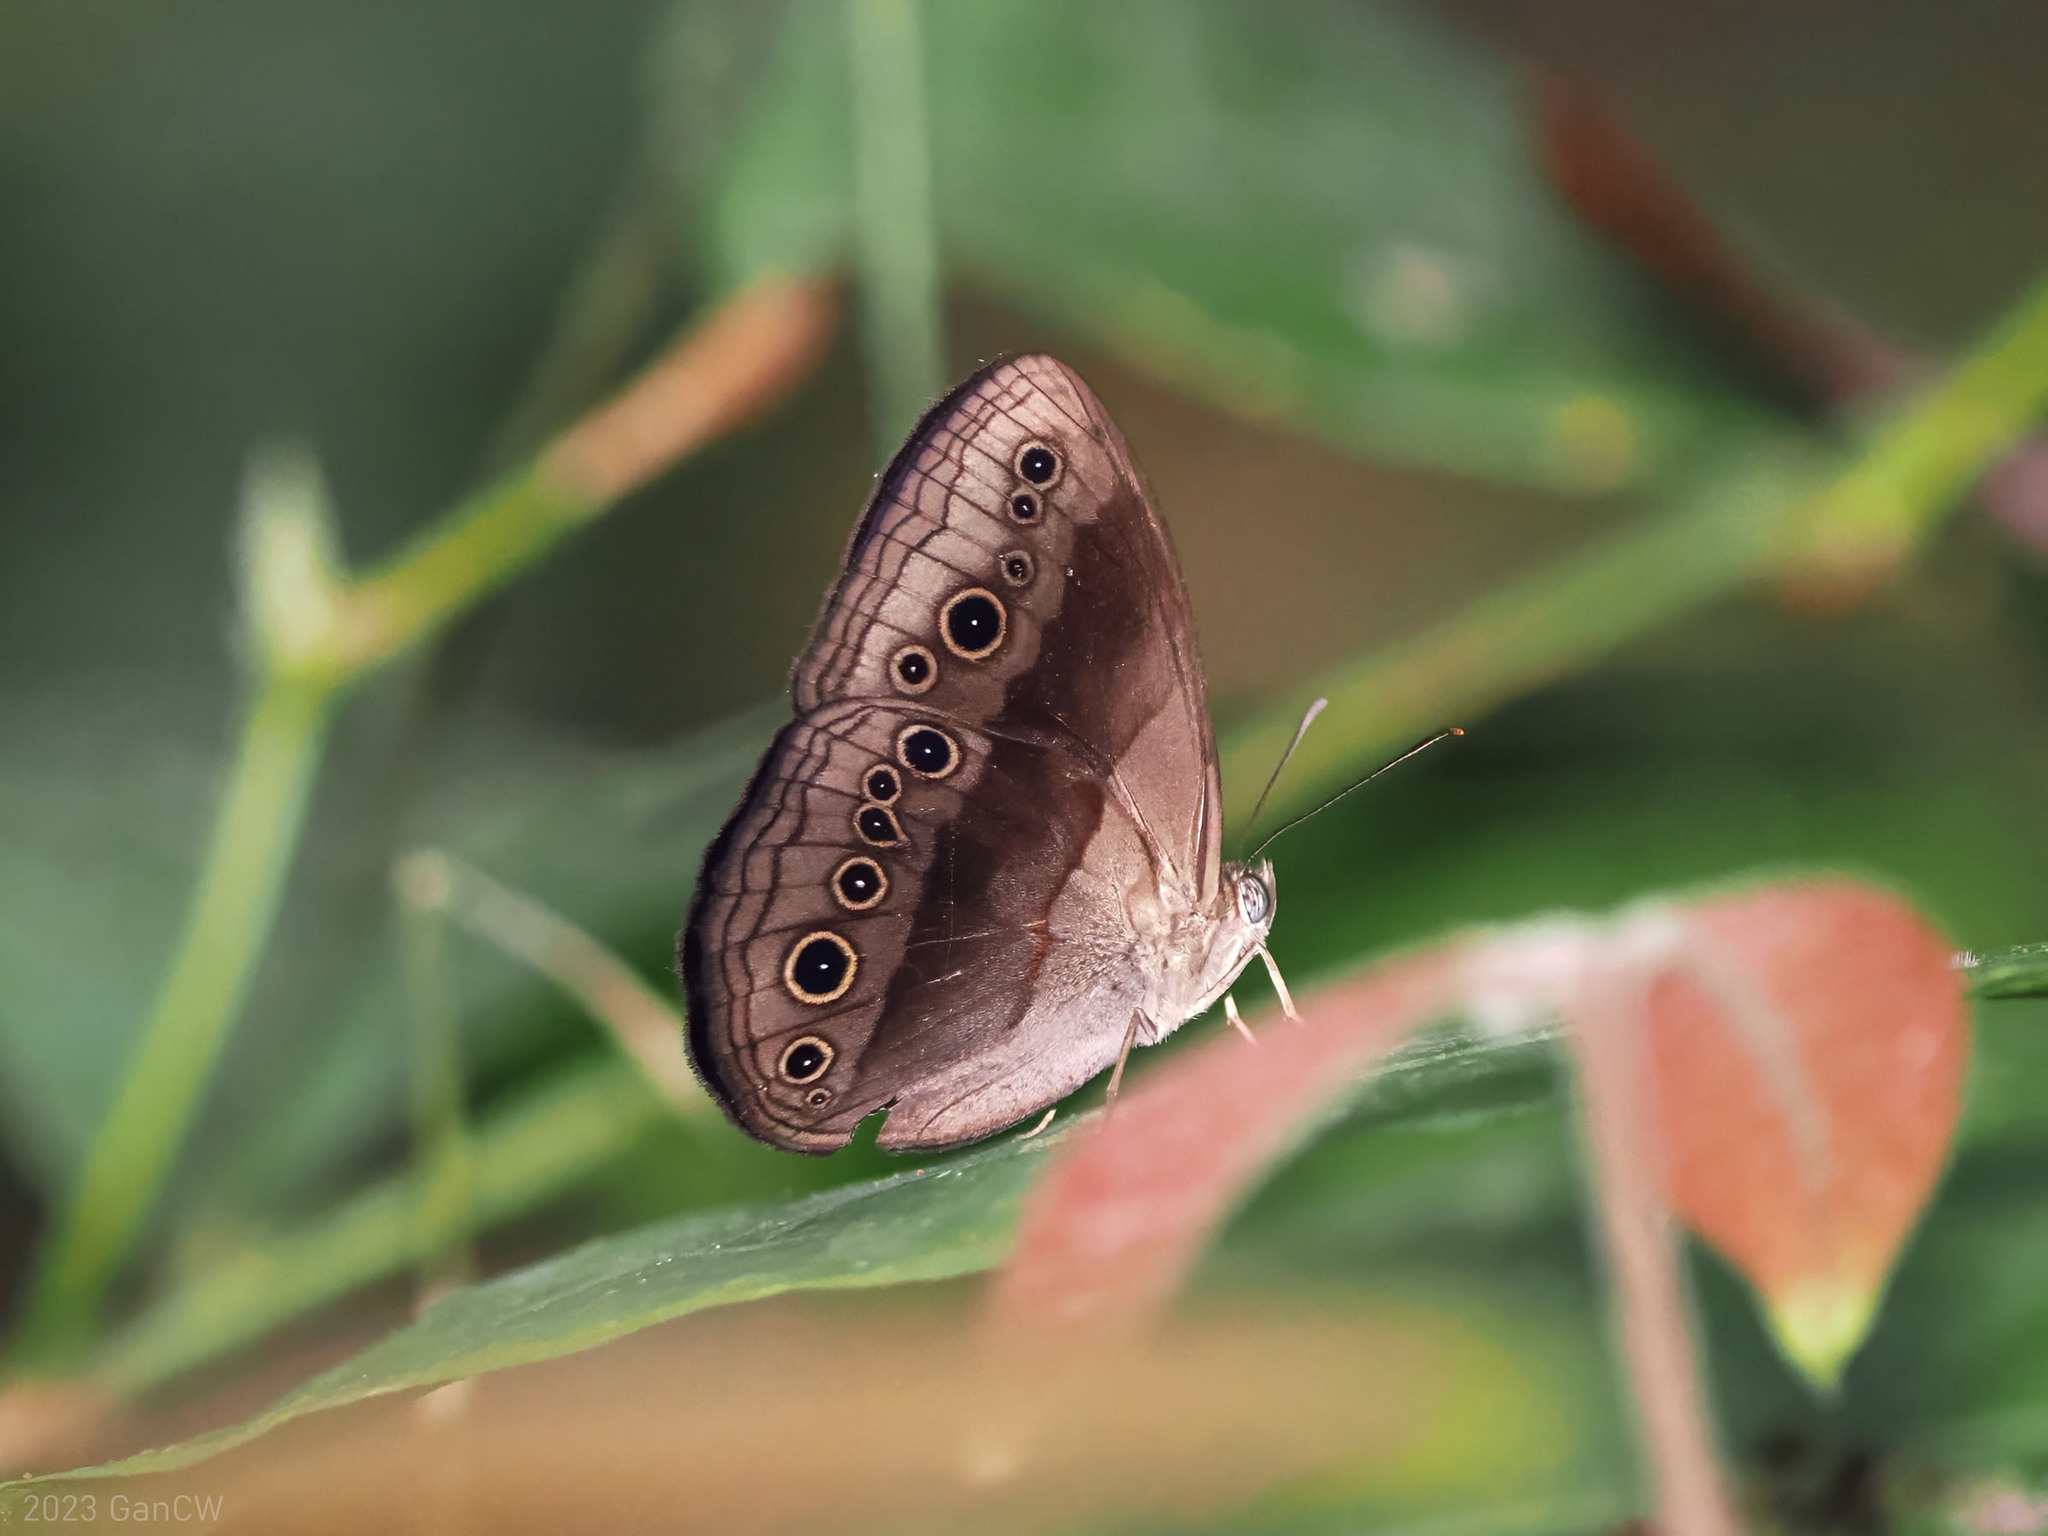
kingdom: Animalia
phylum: Arthropoda
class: Insecta
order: Lepidoptera
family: Nymphalidae
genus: Mycalesis
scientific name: Mycalesis bazochii
